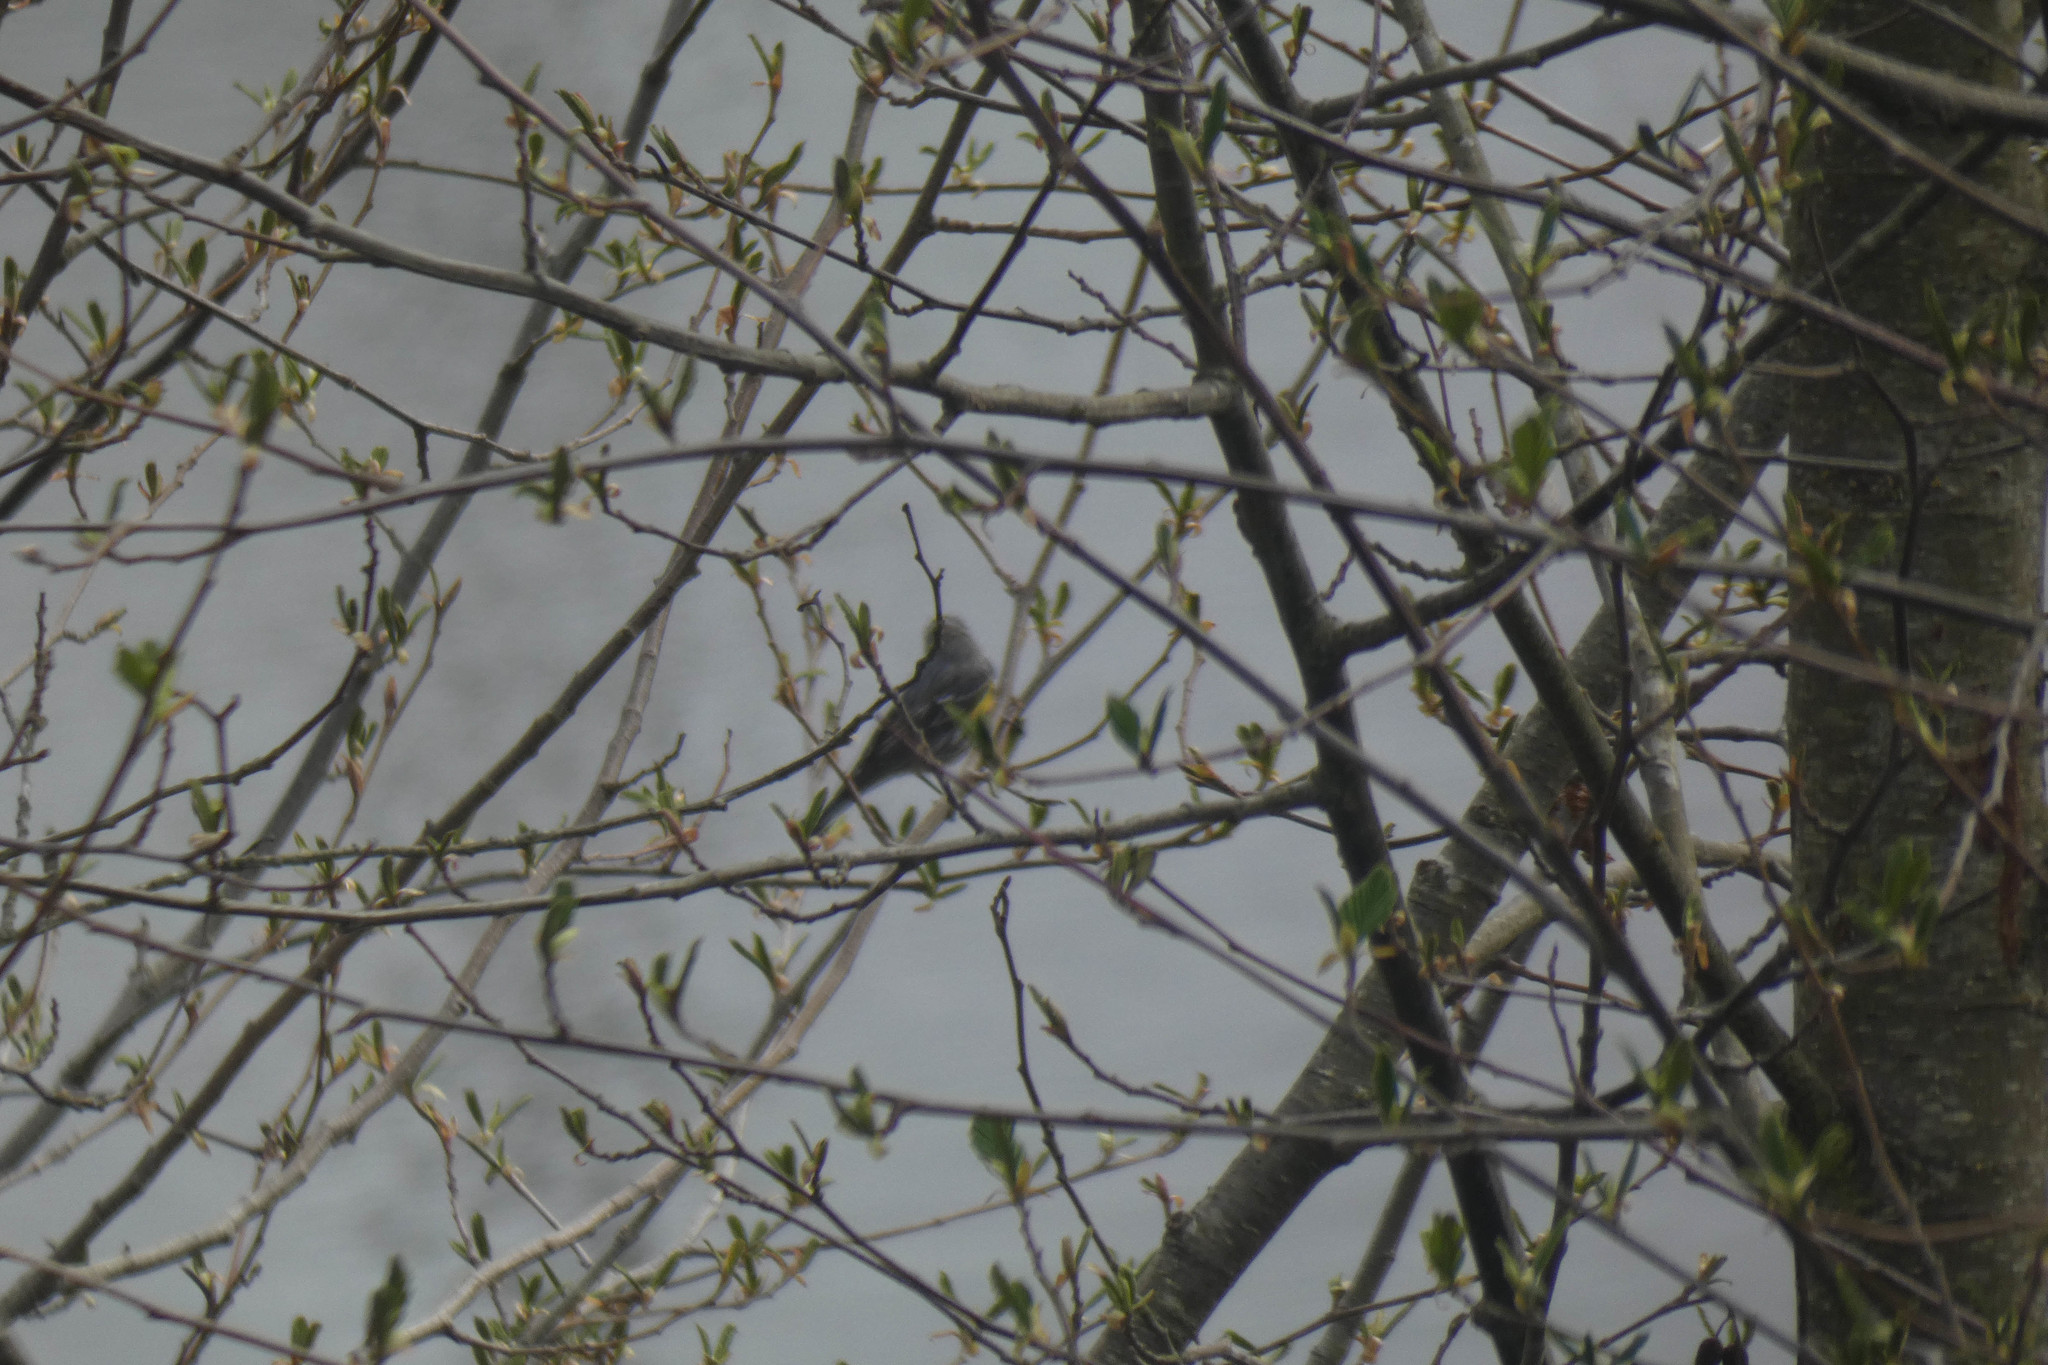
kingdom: Animalia
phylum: Chordata
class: Aves
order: Passeriformes
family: Parulidae
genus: Setophaga
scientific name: Setophaga coronata
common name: Myrtle warbler
